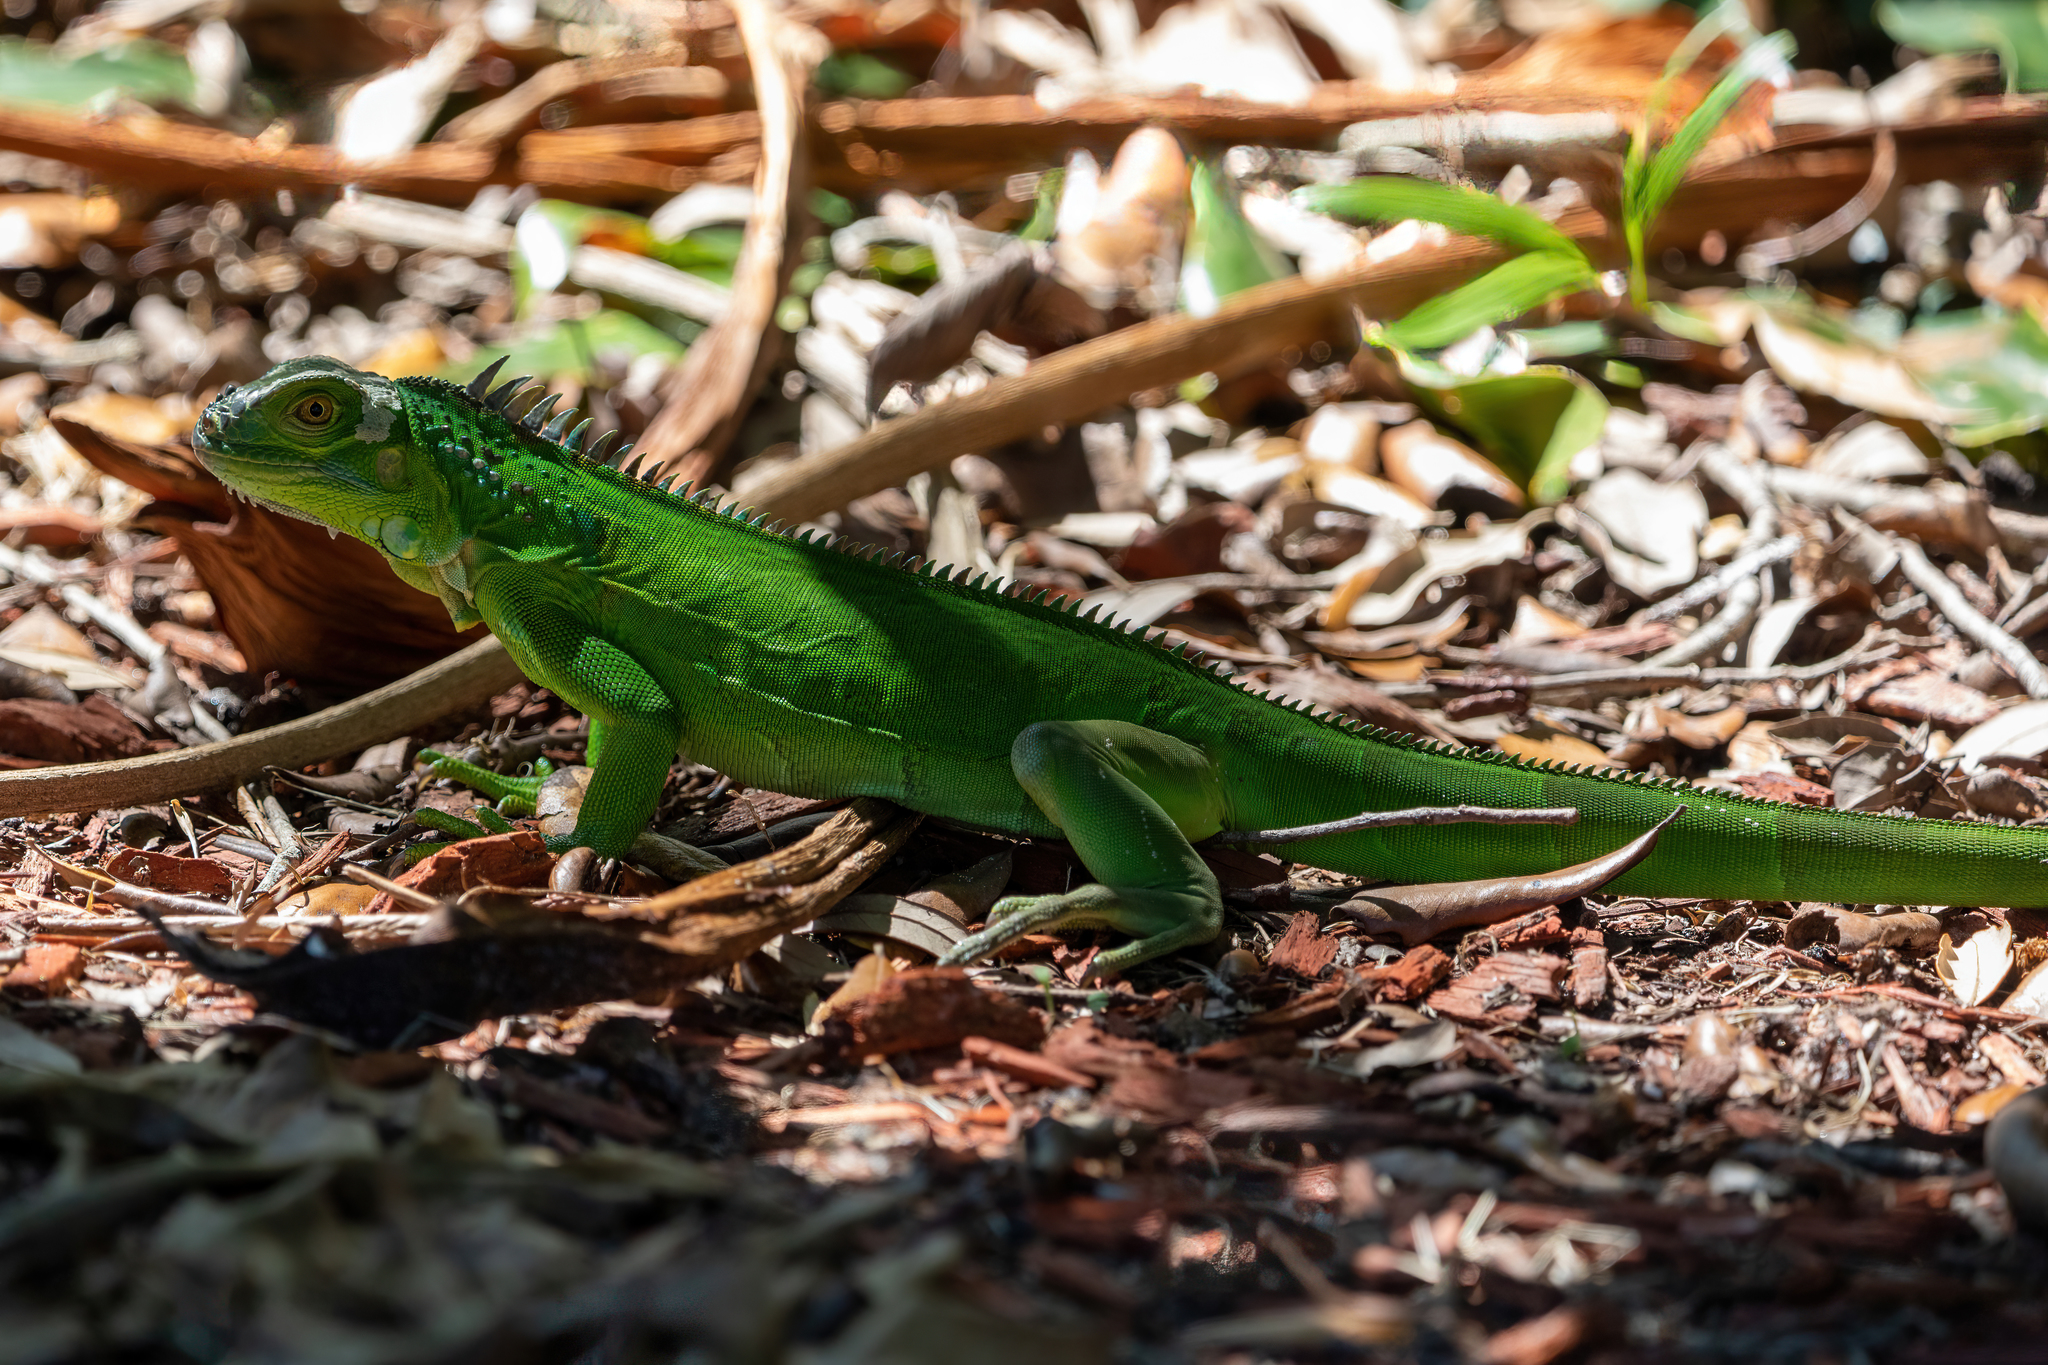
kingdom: Animalia
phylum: Chordata
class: Squamata
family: Iguanidae
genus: Iguana
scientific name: Iguana iguana
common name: Green iguana
